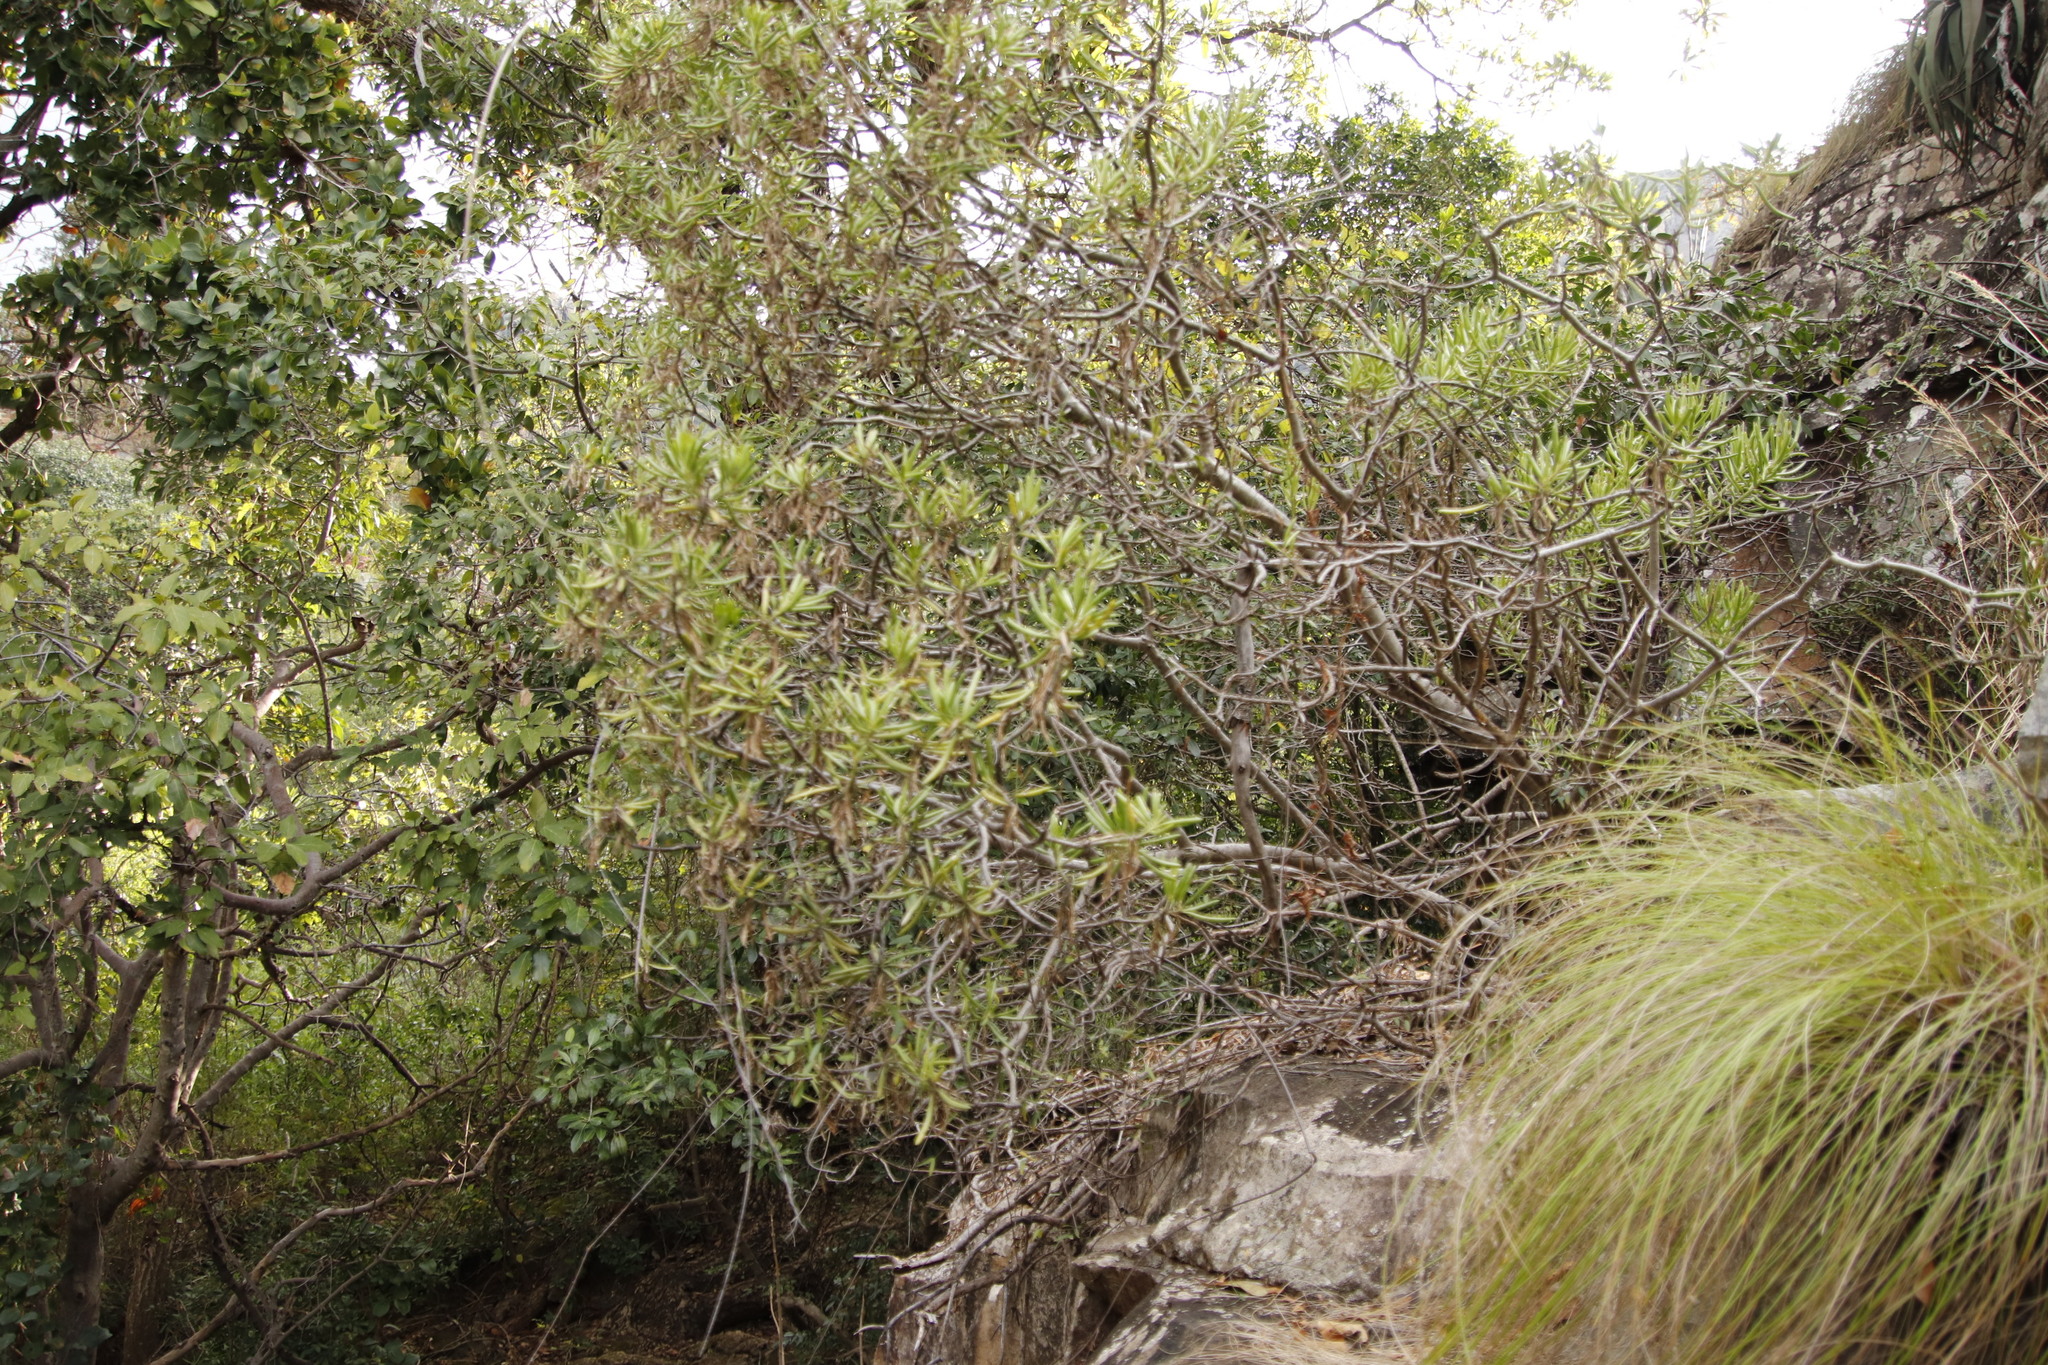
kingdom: Plantae
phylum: Tracheophyta
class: Magnoliopsida
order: Asterales
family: Asteraceae
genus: Kleinia
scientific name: Kleinia barbertonica
